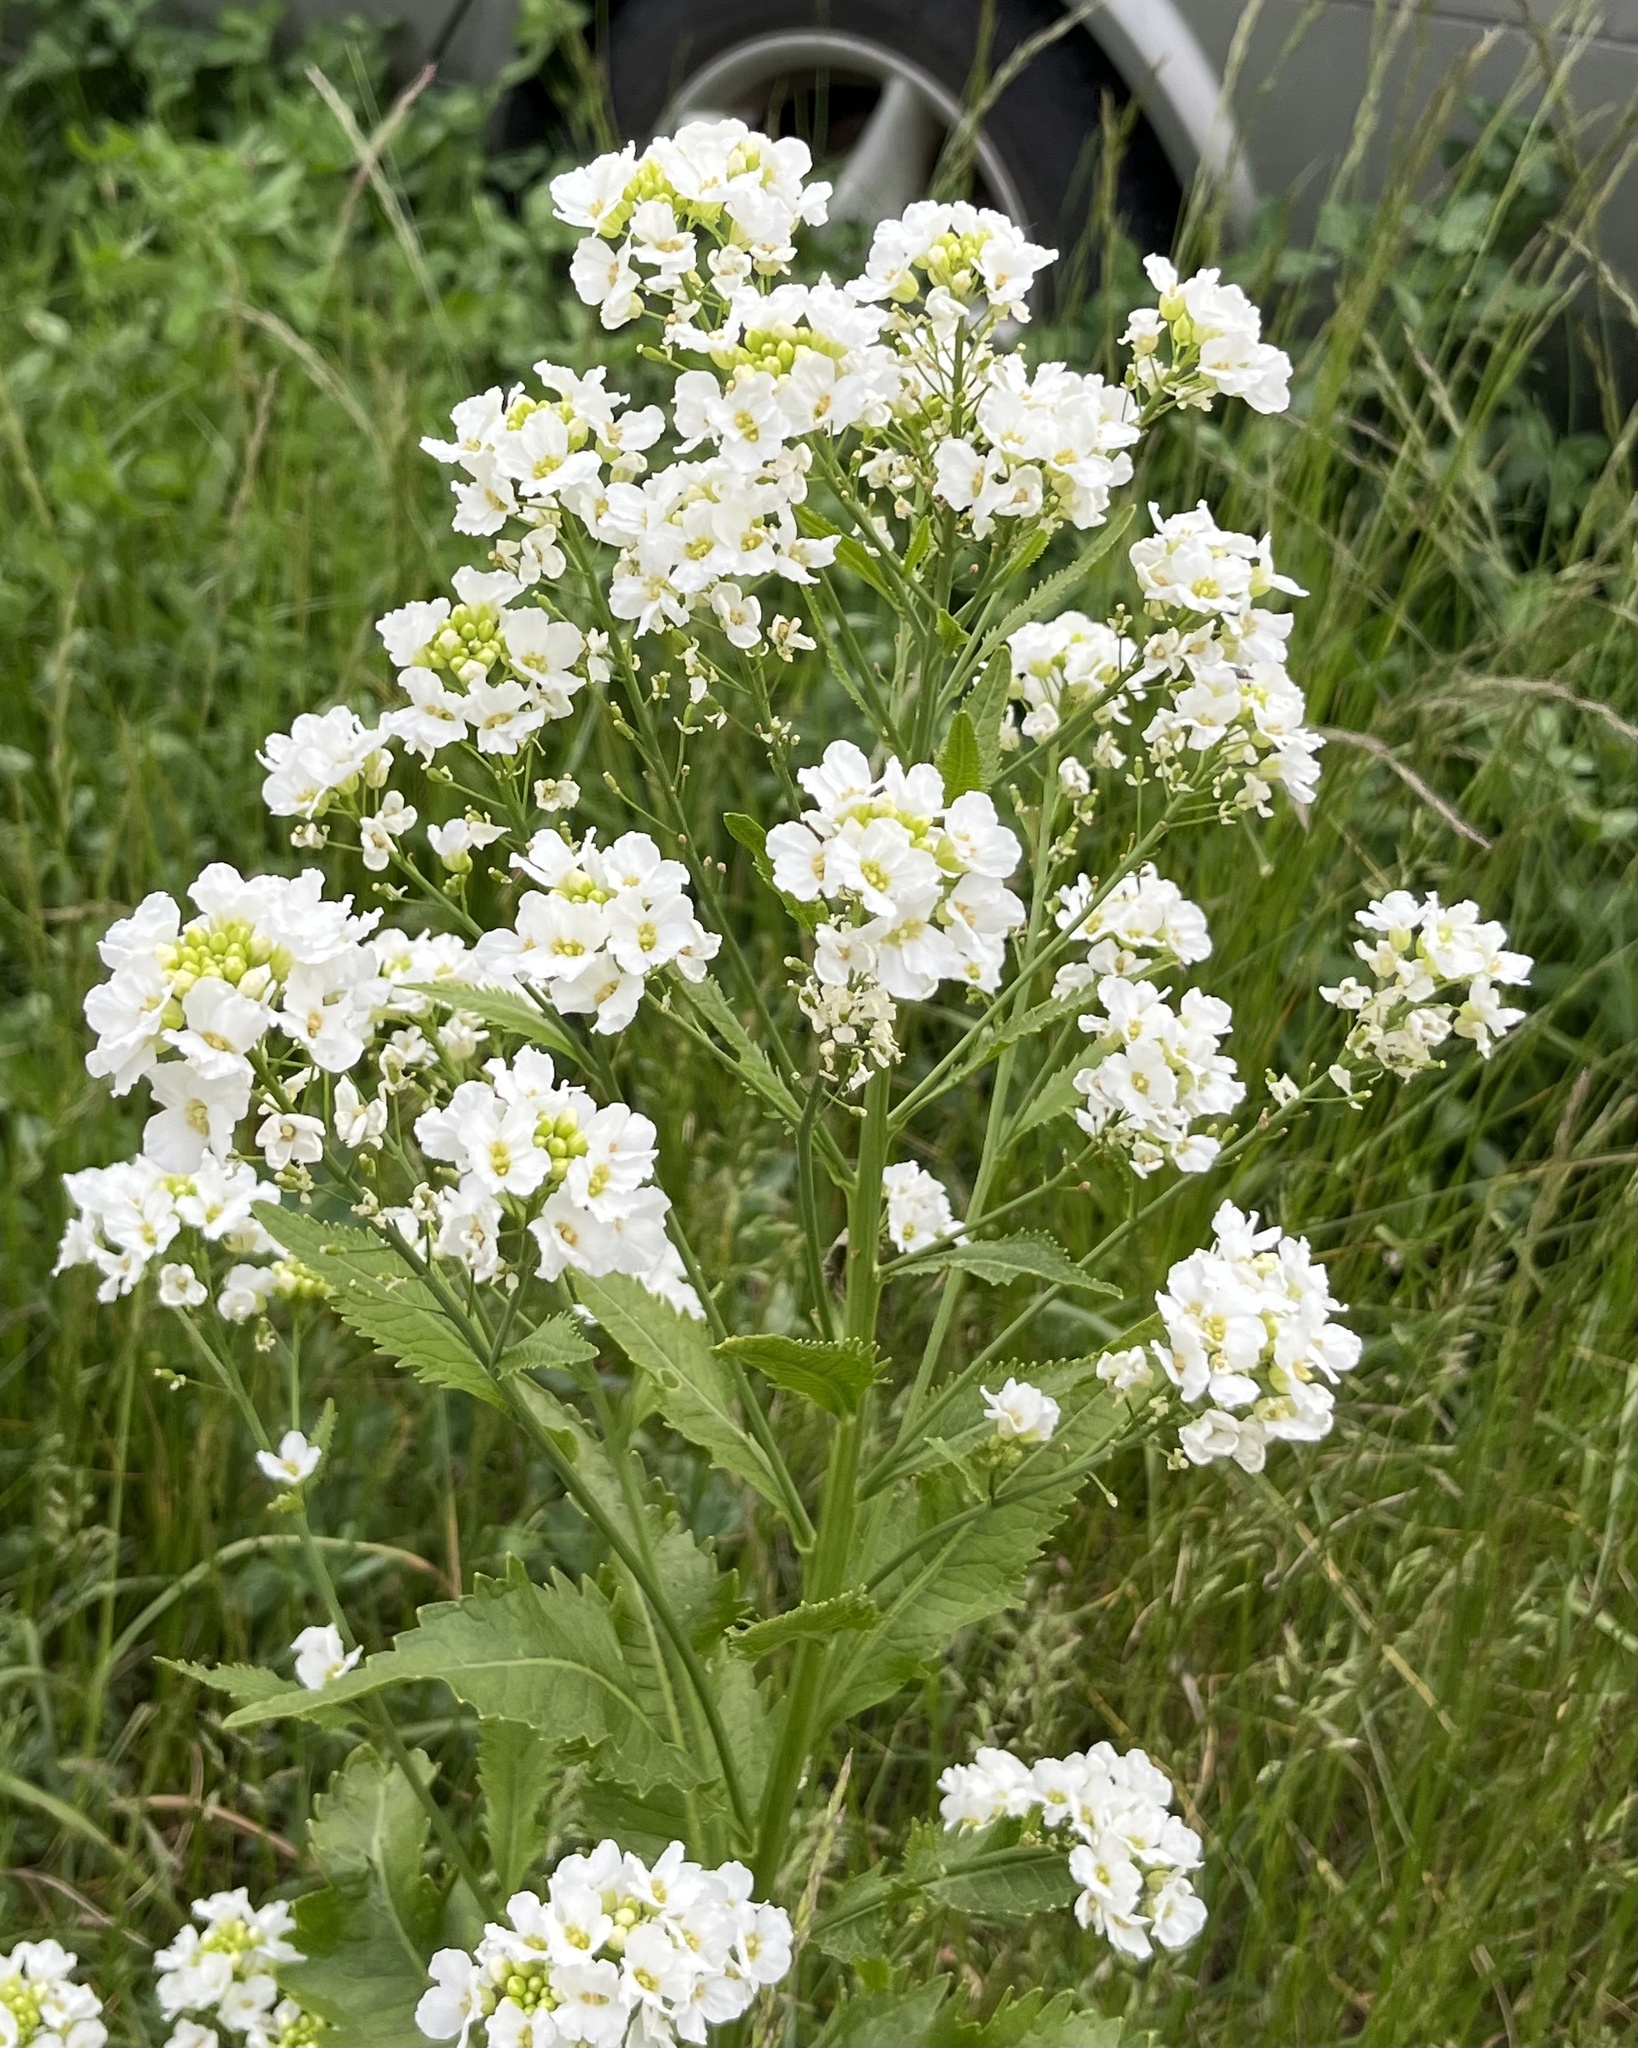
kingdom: Plantae
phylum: Tracheophyta
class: Magnoliopsida
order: Brassicales
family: Brassicaceae
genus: Armoracia
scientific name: Armoracia rusticana
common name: Horseradish
